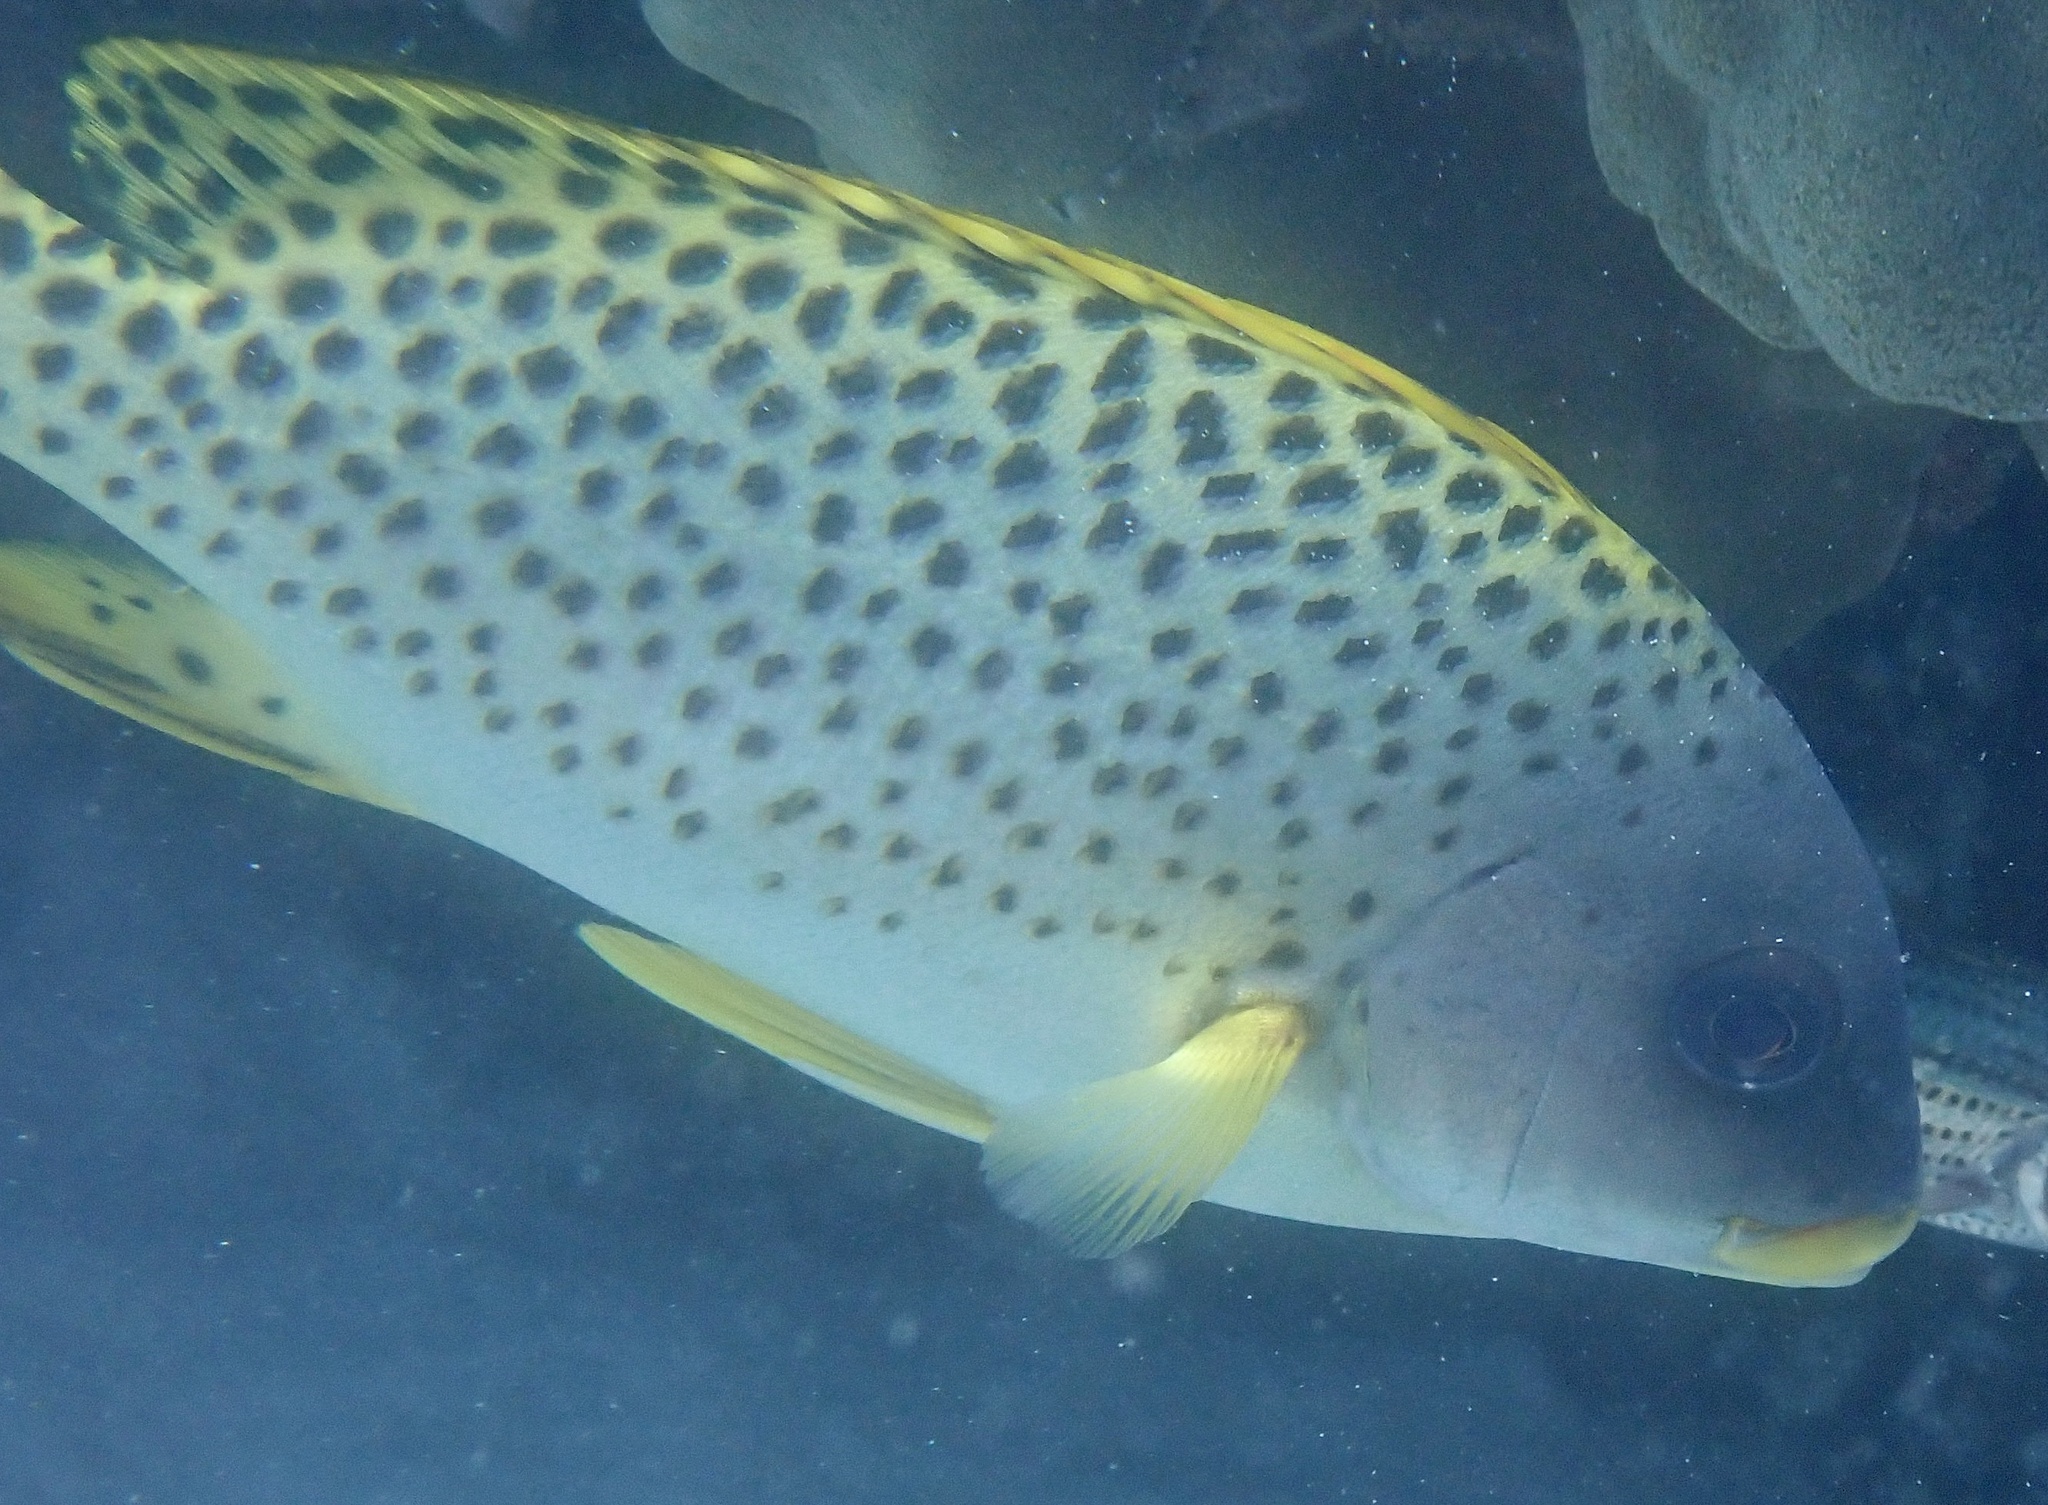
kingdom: Animalia
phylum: Chordata
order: Perciformes
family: Haemulidae
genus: Plectorhinchus
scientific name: Plectorhinchus gaterinus
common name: Blackspotted rubberlip
